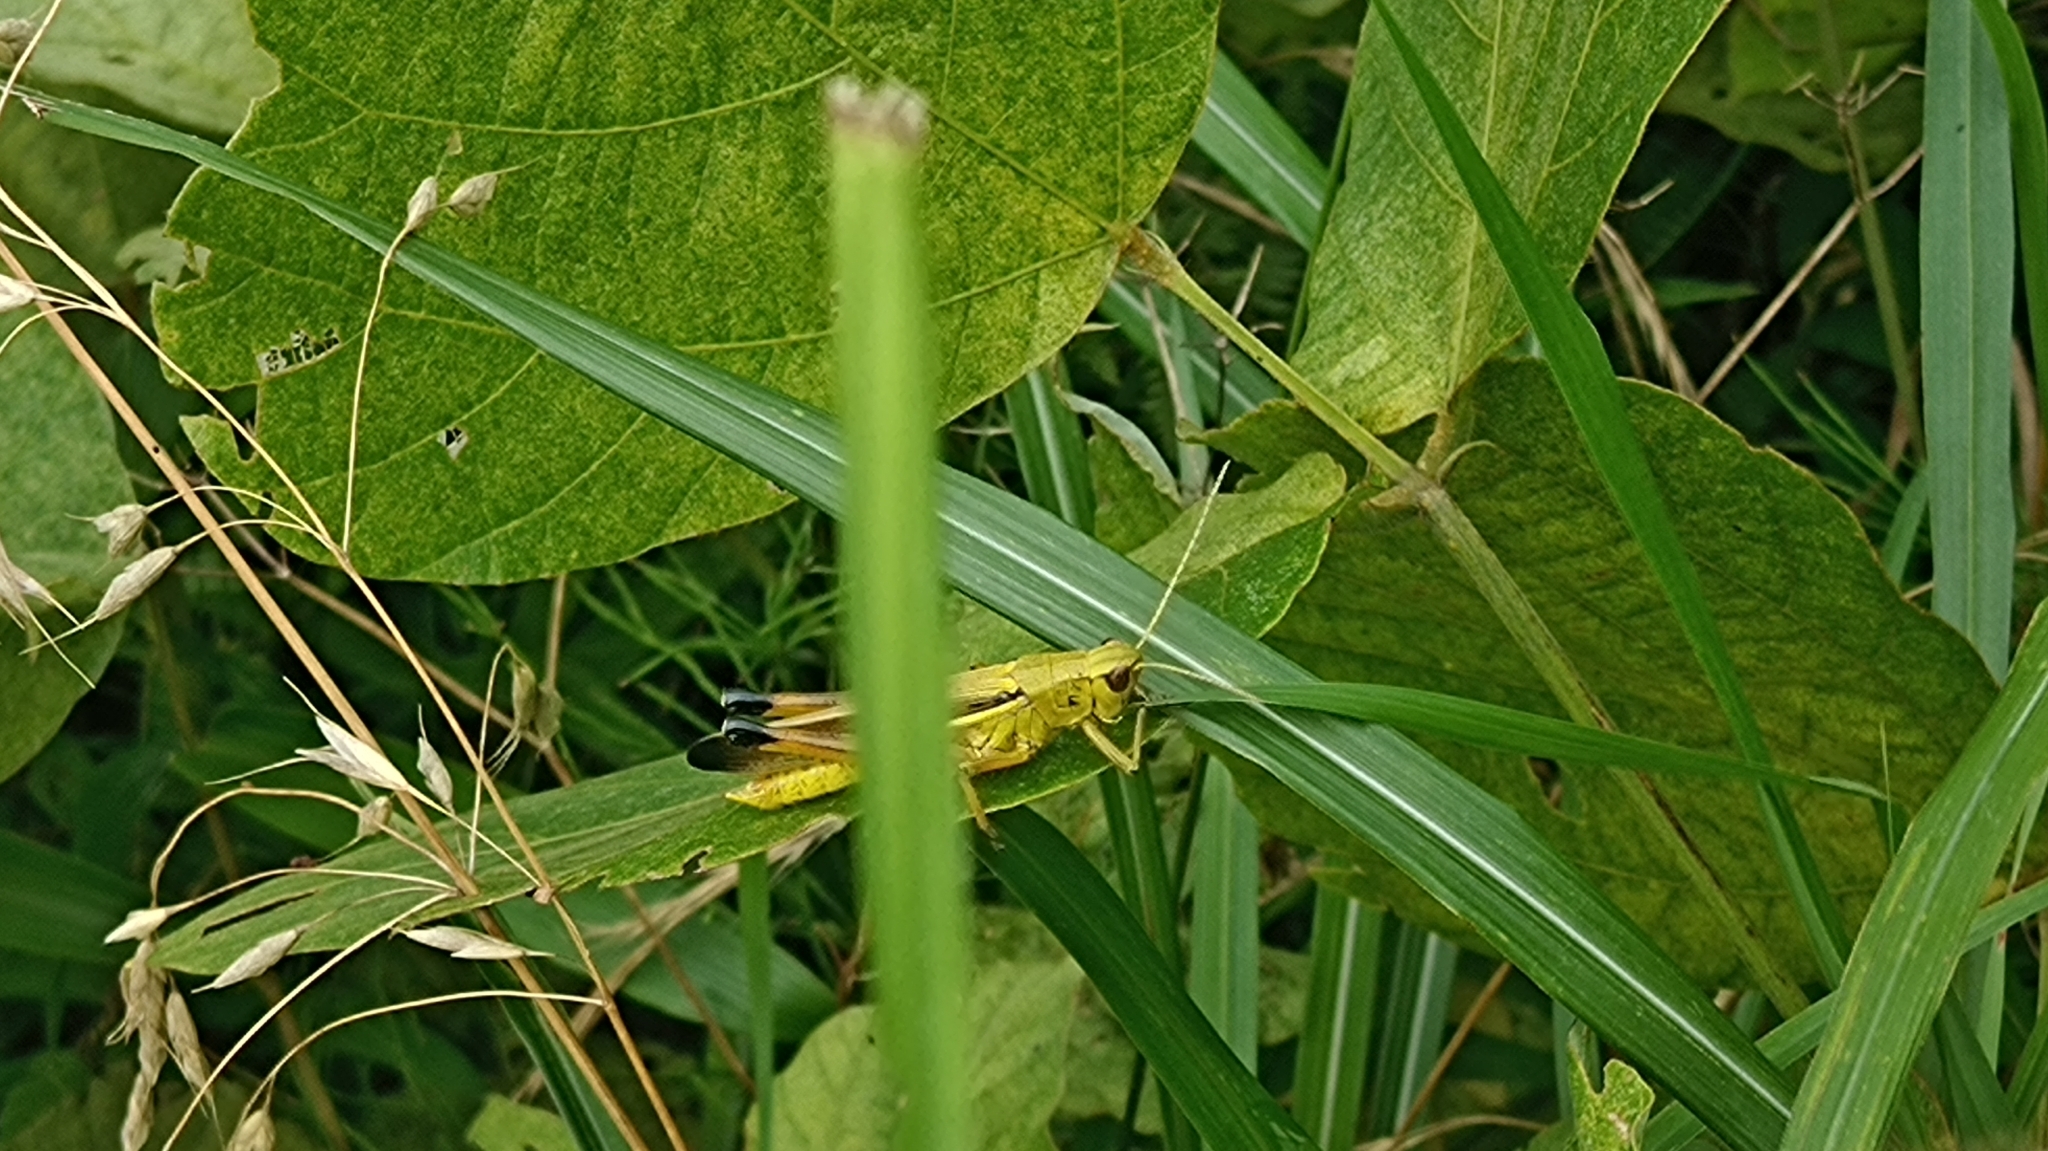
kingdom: Animalia
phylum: Arthropoda
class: Insecta
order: Orthoptera
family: Acrididae
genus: Stethophyma
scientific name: Stethophyma magister
